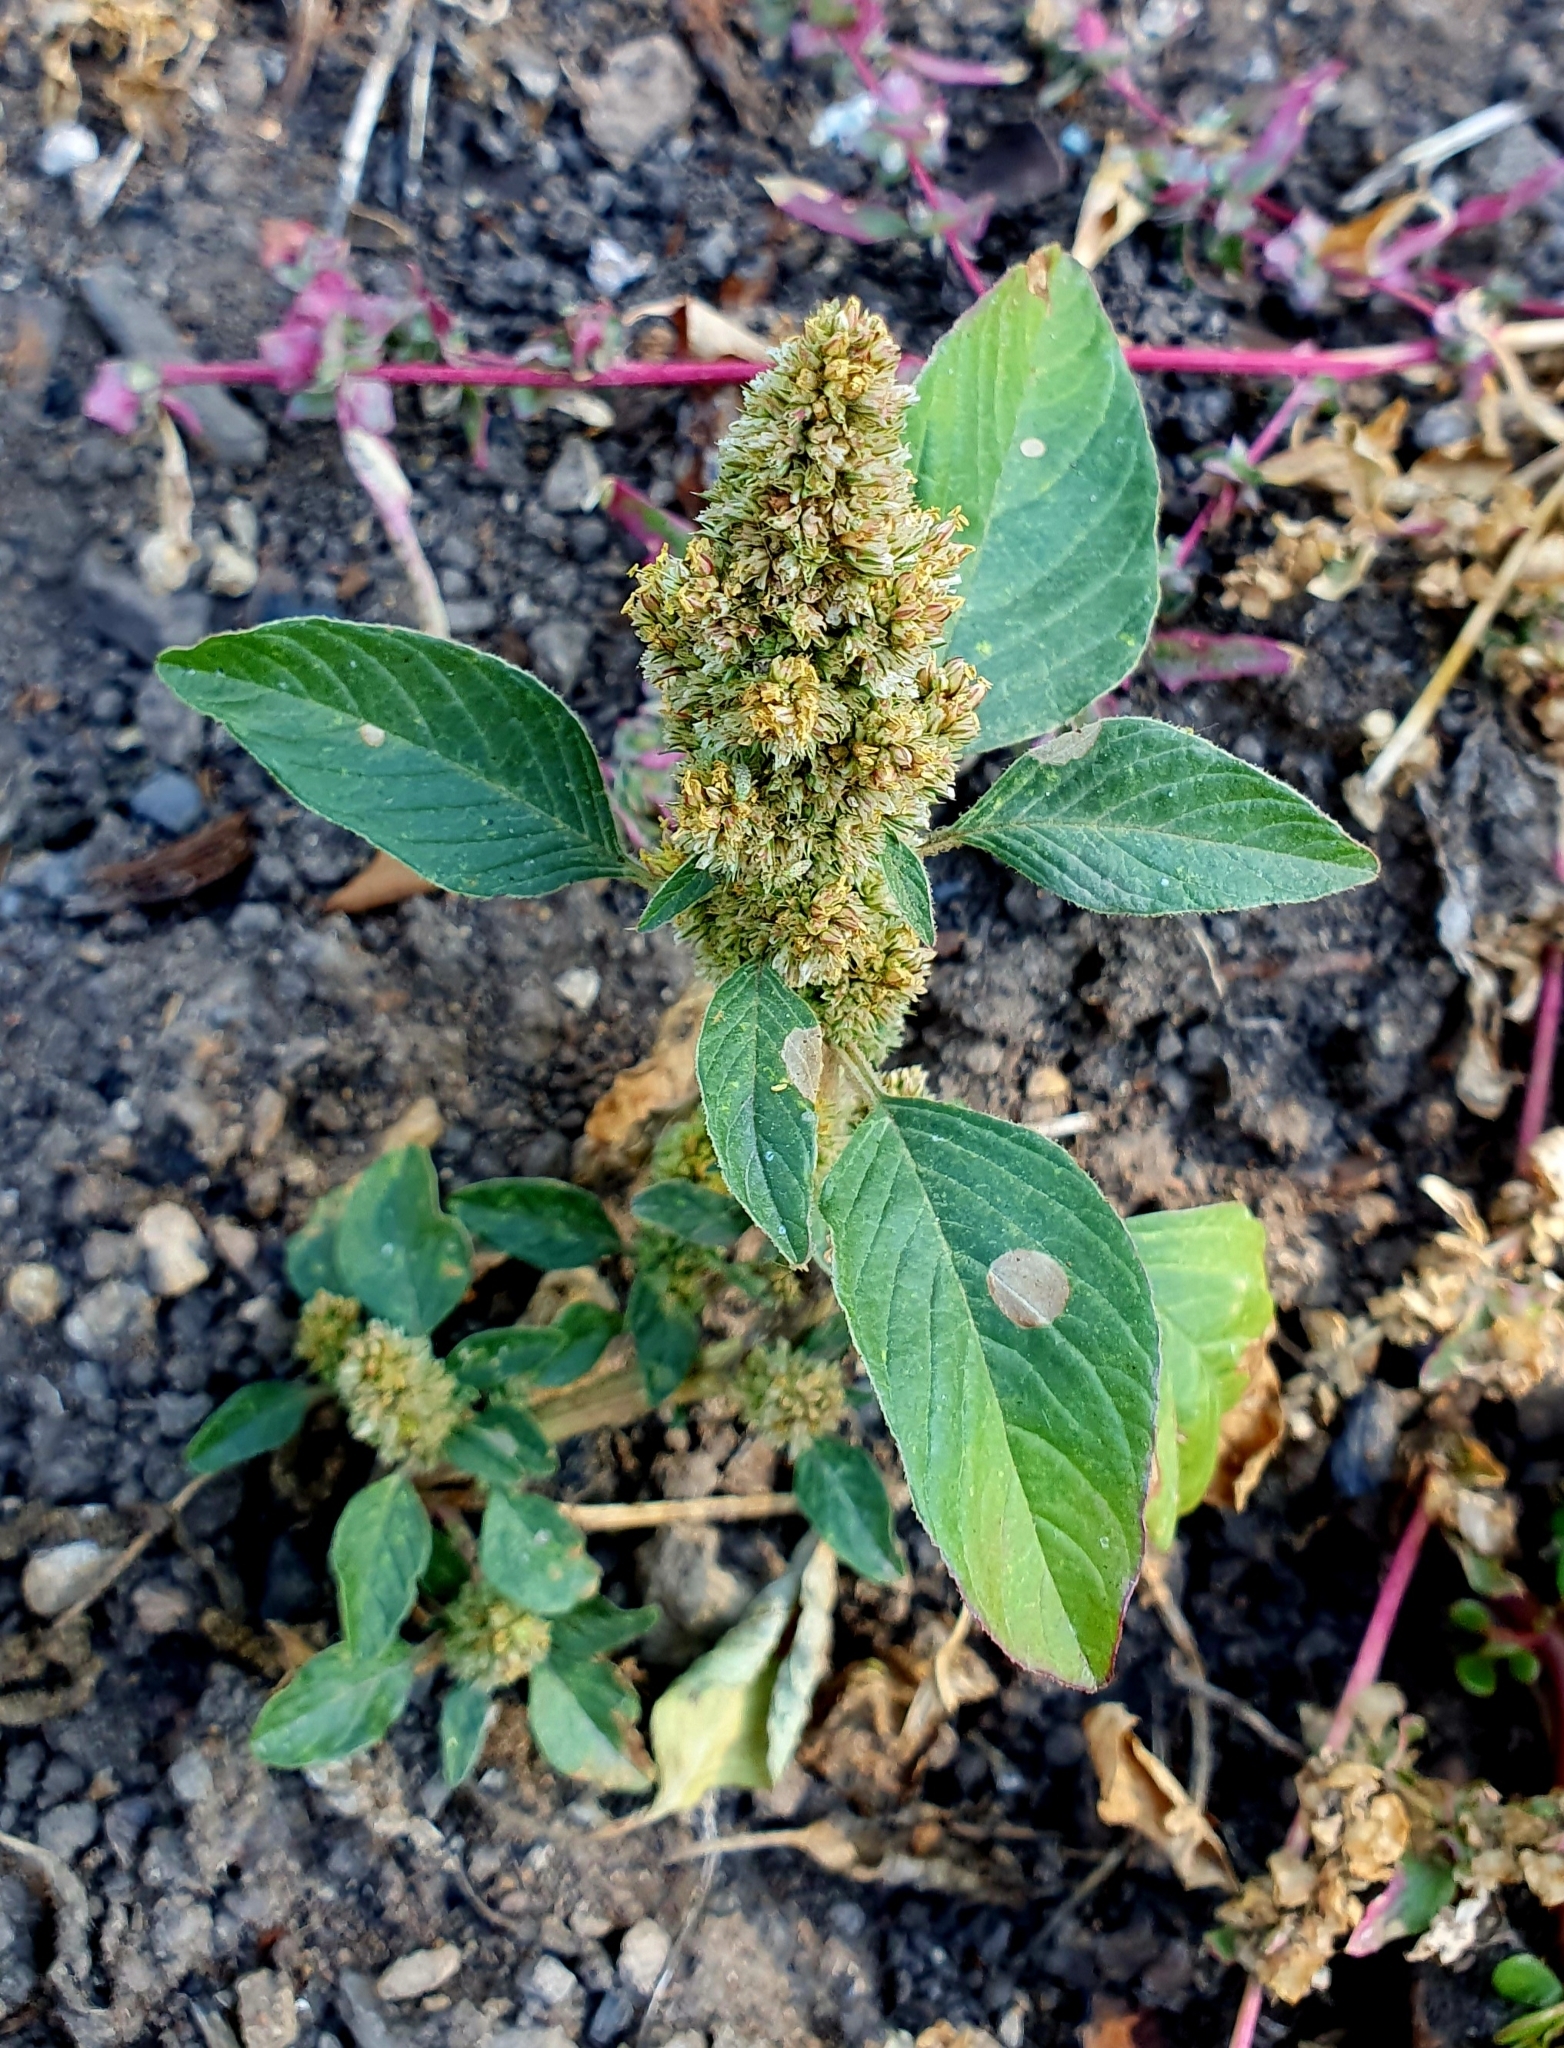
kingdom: Plantae
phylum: Tracheophyta
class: Magnoliopsida
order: Caryophyllales
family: Amaranthaceae
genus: Amaranthus
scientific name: Amaranthus retroflexus
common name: Redroot amaranth
